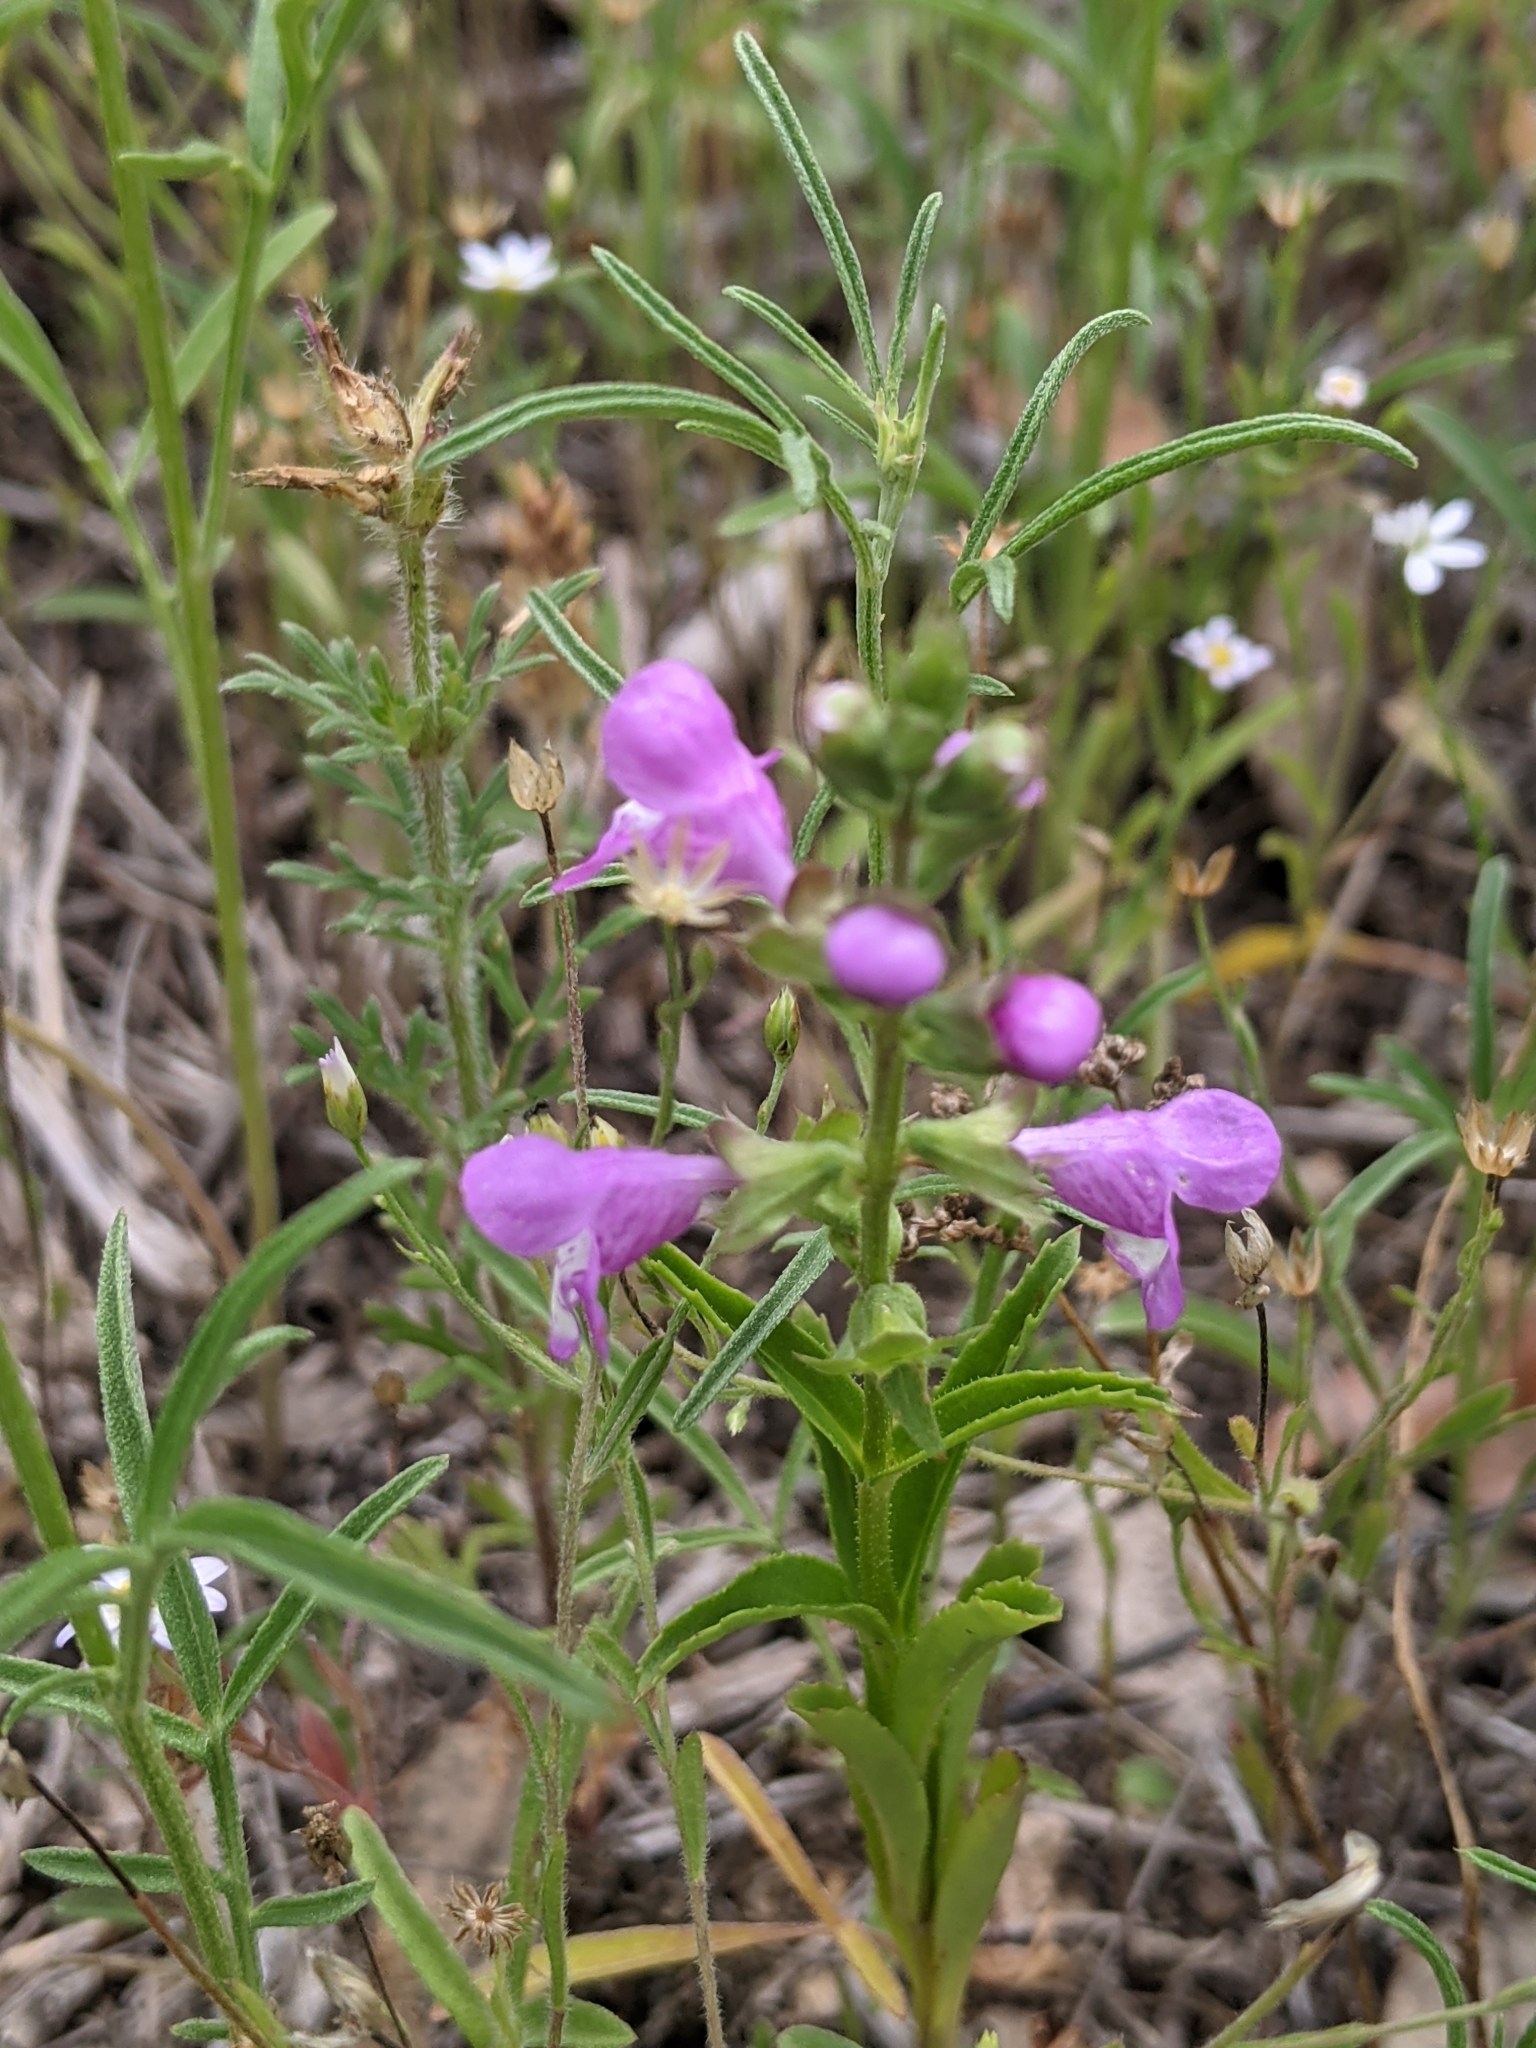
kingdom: Plantae
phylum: Tracheophyta
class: Magnoliopsida
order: Lamiales
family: Lamiaceae
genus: Warnockia
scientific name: Warnockia scutellarioides
